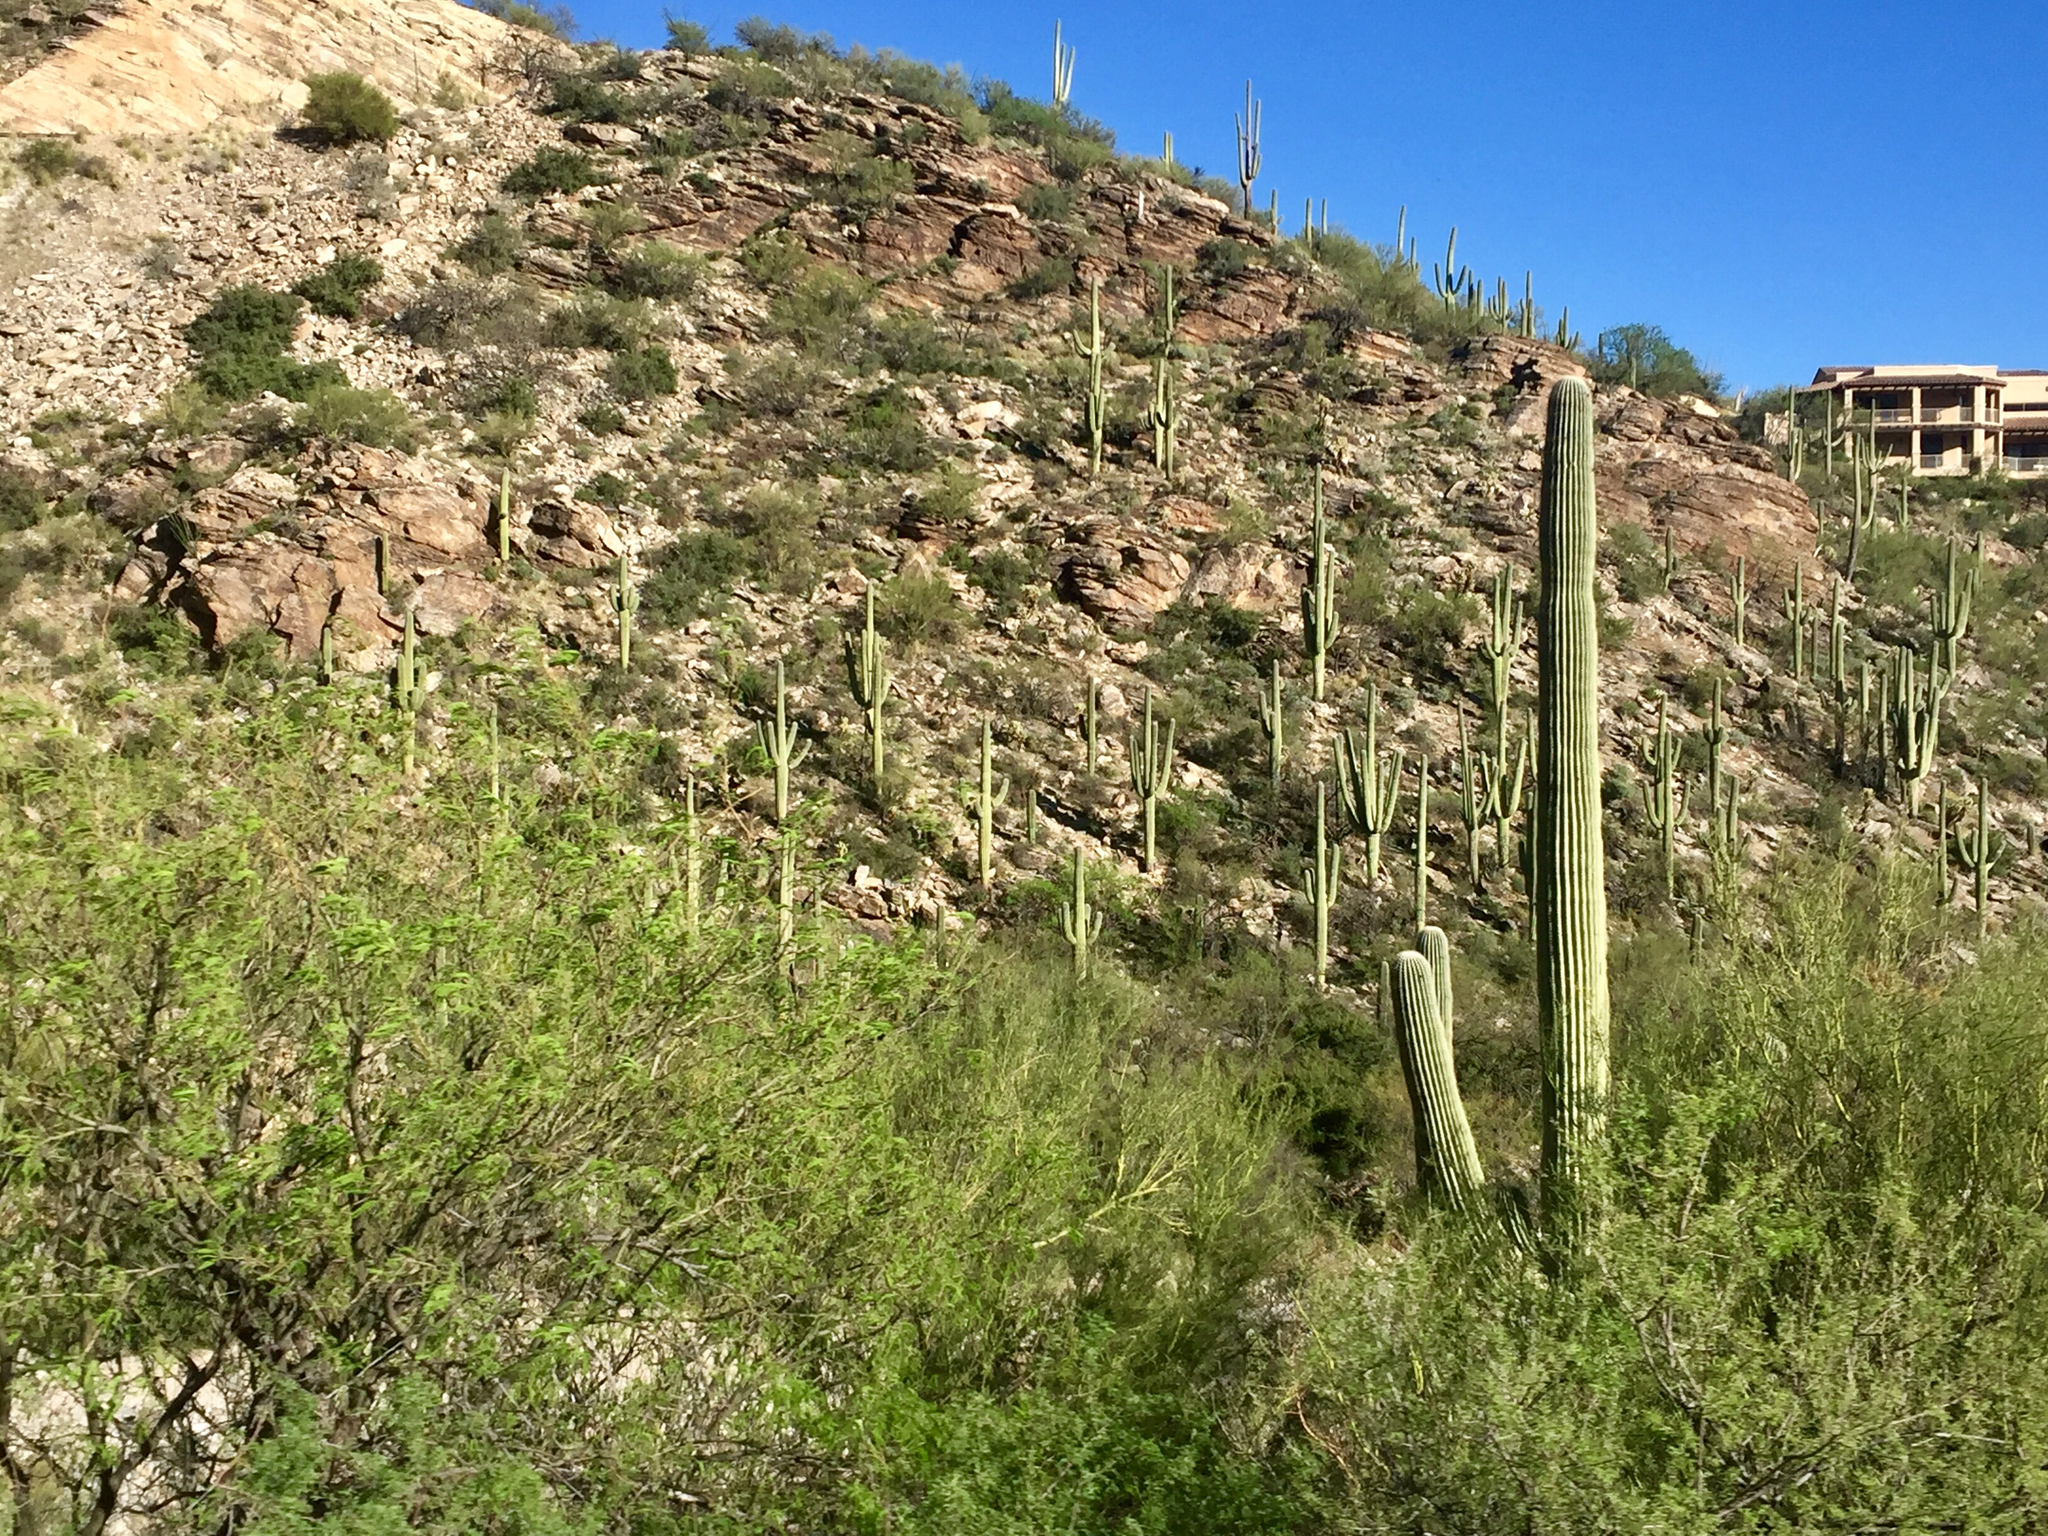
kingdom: Plantae
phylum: Tracheophyta
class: Magnoliopsida
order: Caryophyllales
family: Cactaceae
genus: Carnegiea
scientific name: Carnegiea gigantea
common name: Saguaro
